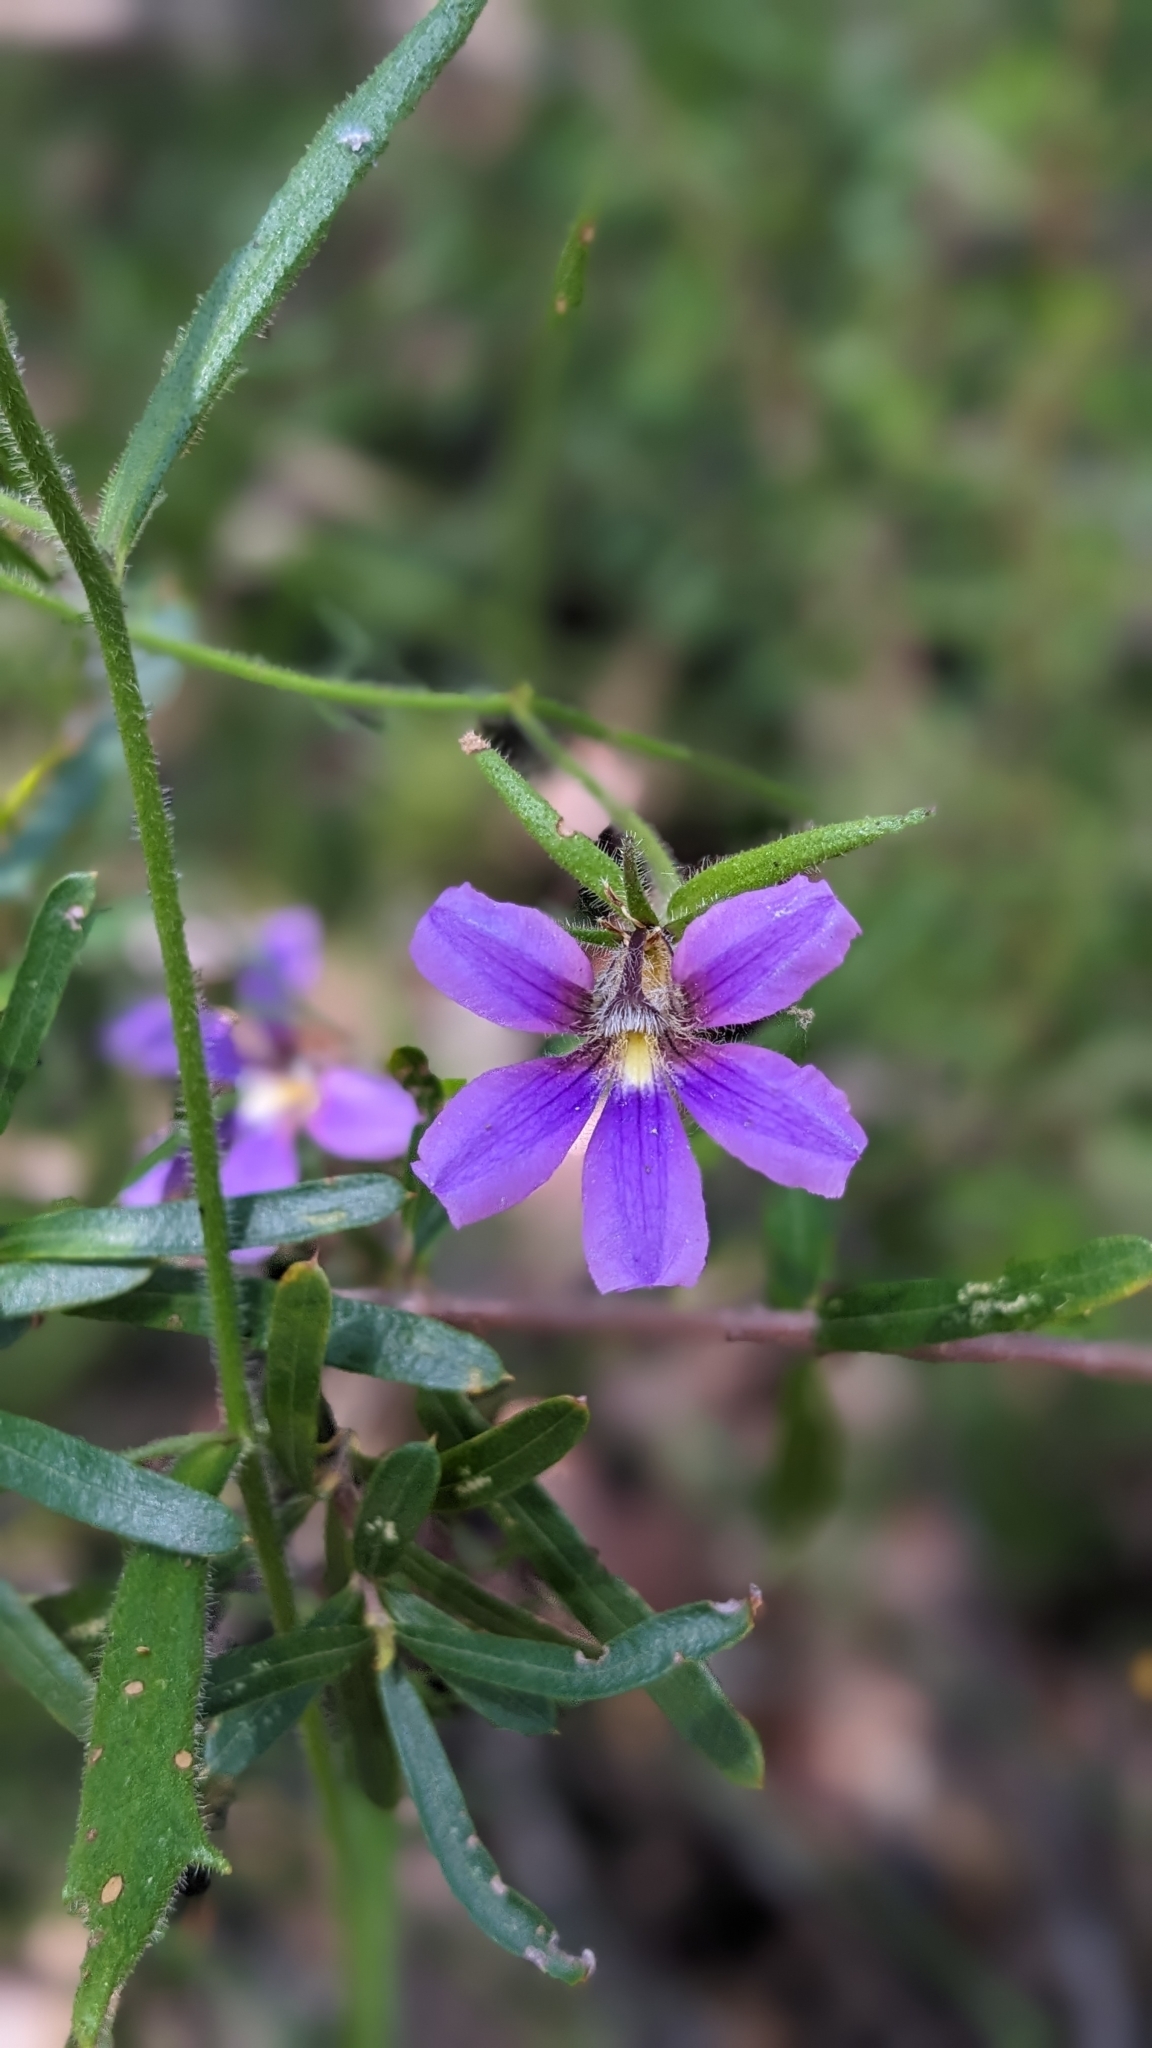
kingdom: Plantae
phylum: Tracheophyta
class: Magnoliopsida
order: Asterales
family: Goodeniaceae
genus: Scaevola
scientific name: Scaevola ramosissima
